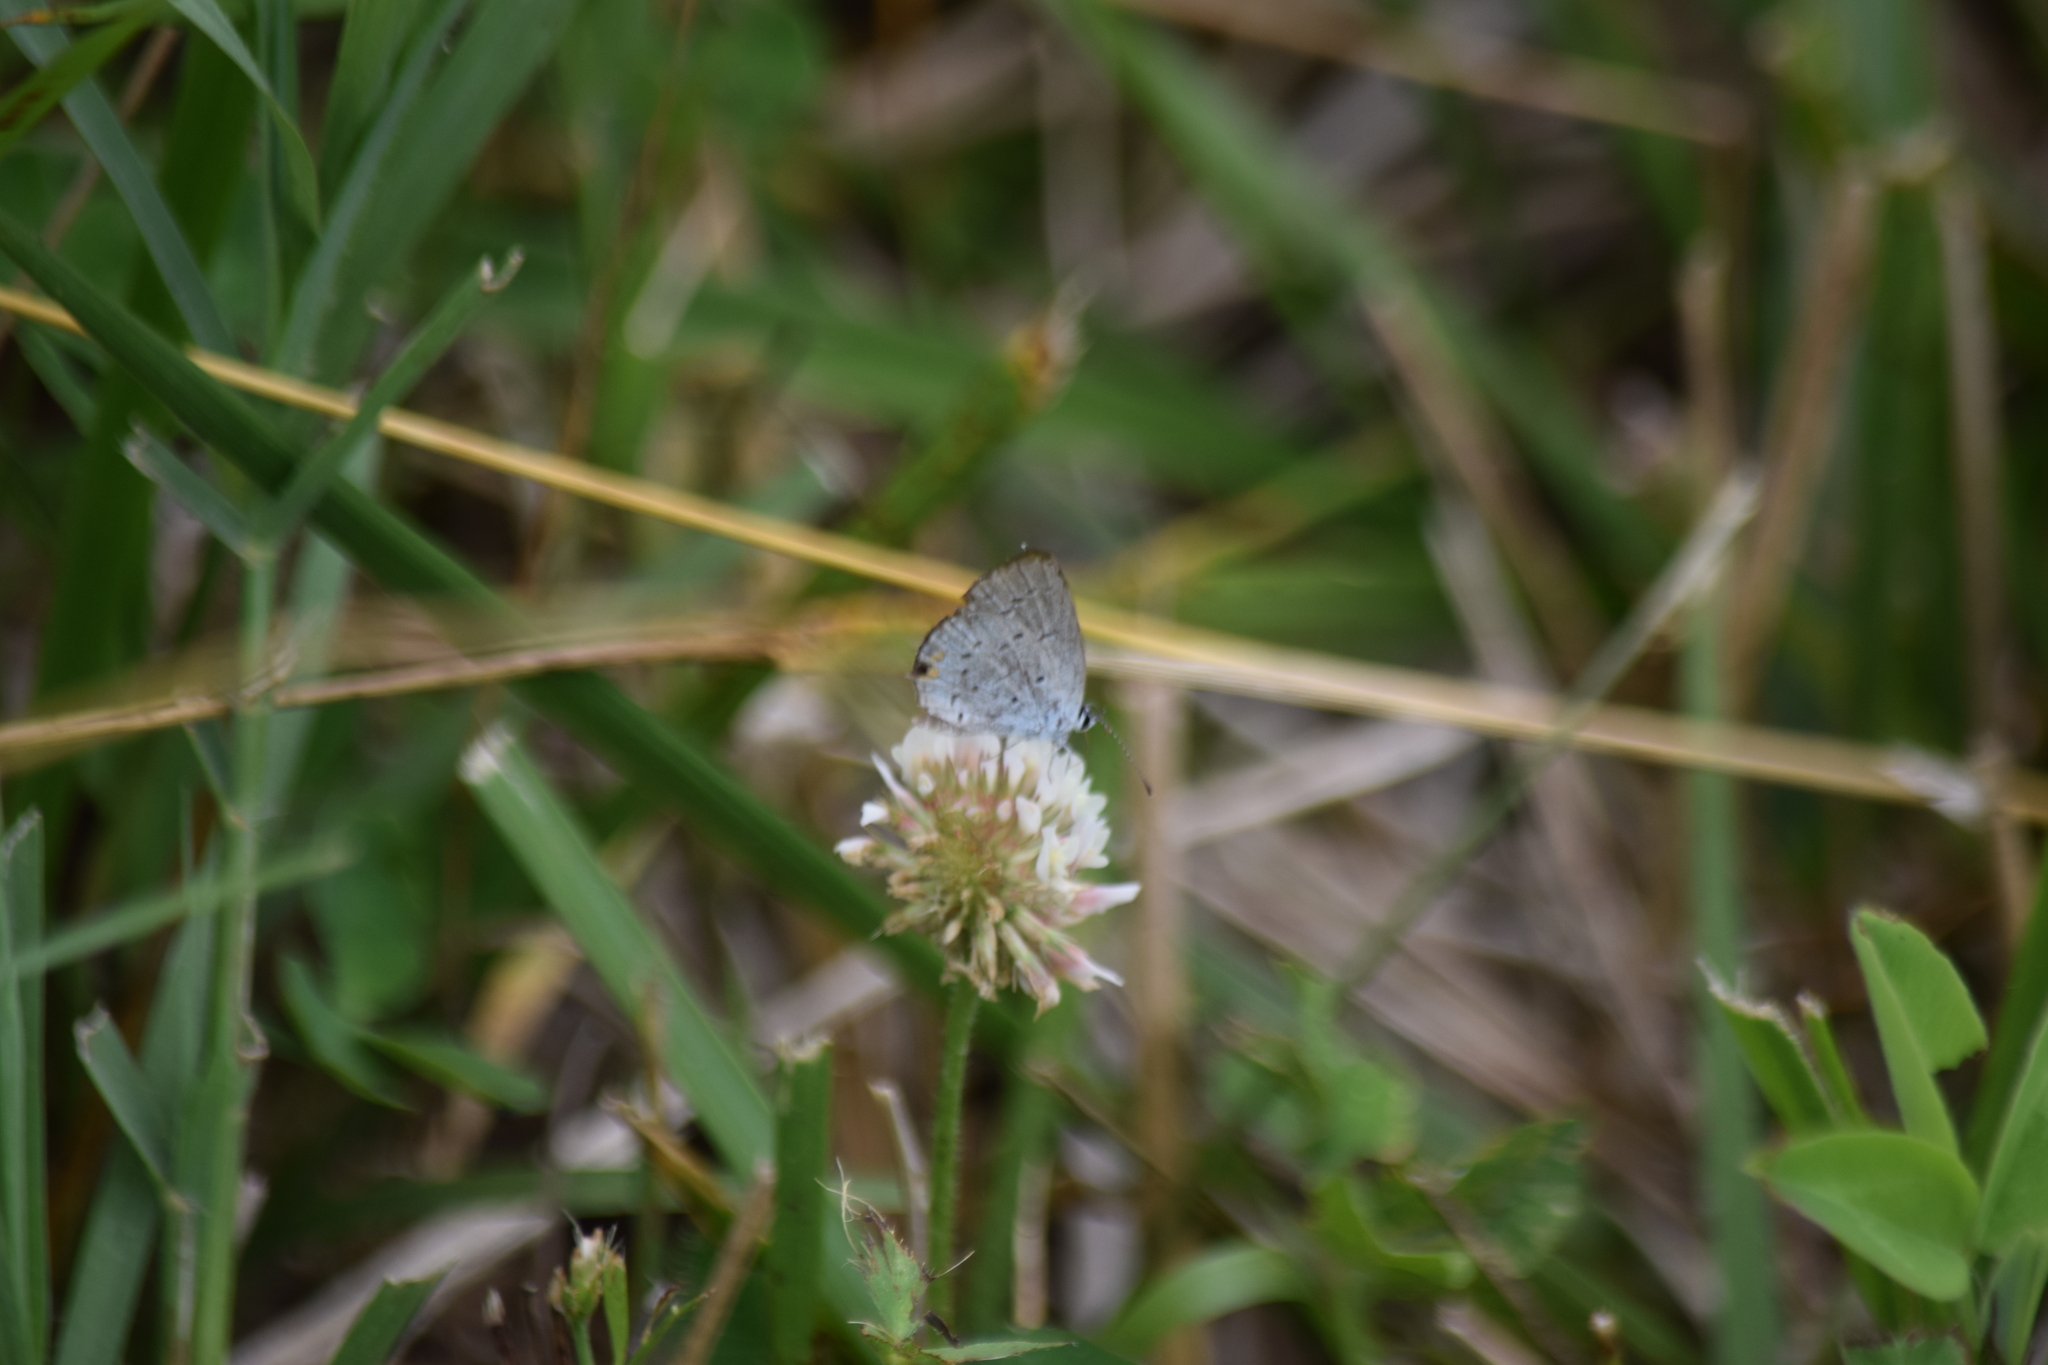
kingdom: Animalia
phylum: Arthropoda
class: Insecta
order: Lepidoptera
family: Lycaenidae
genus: Elkalyce
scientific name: Elkalyce comyntas
